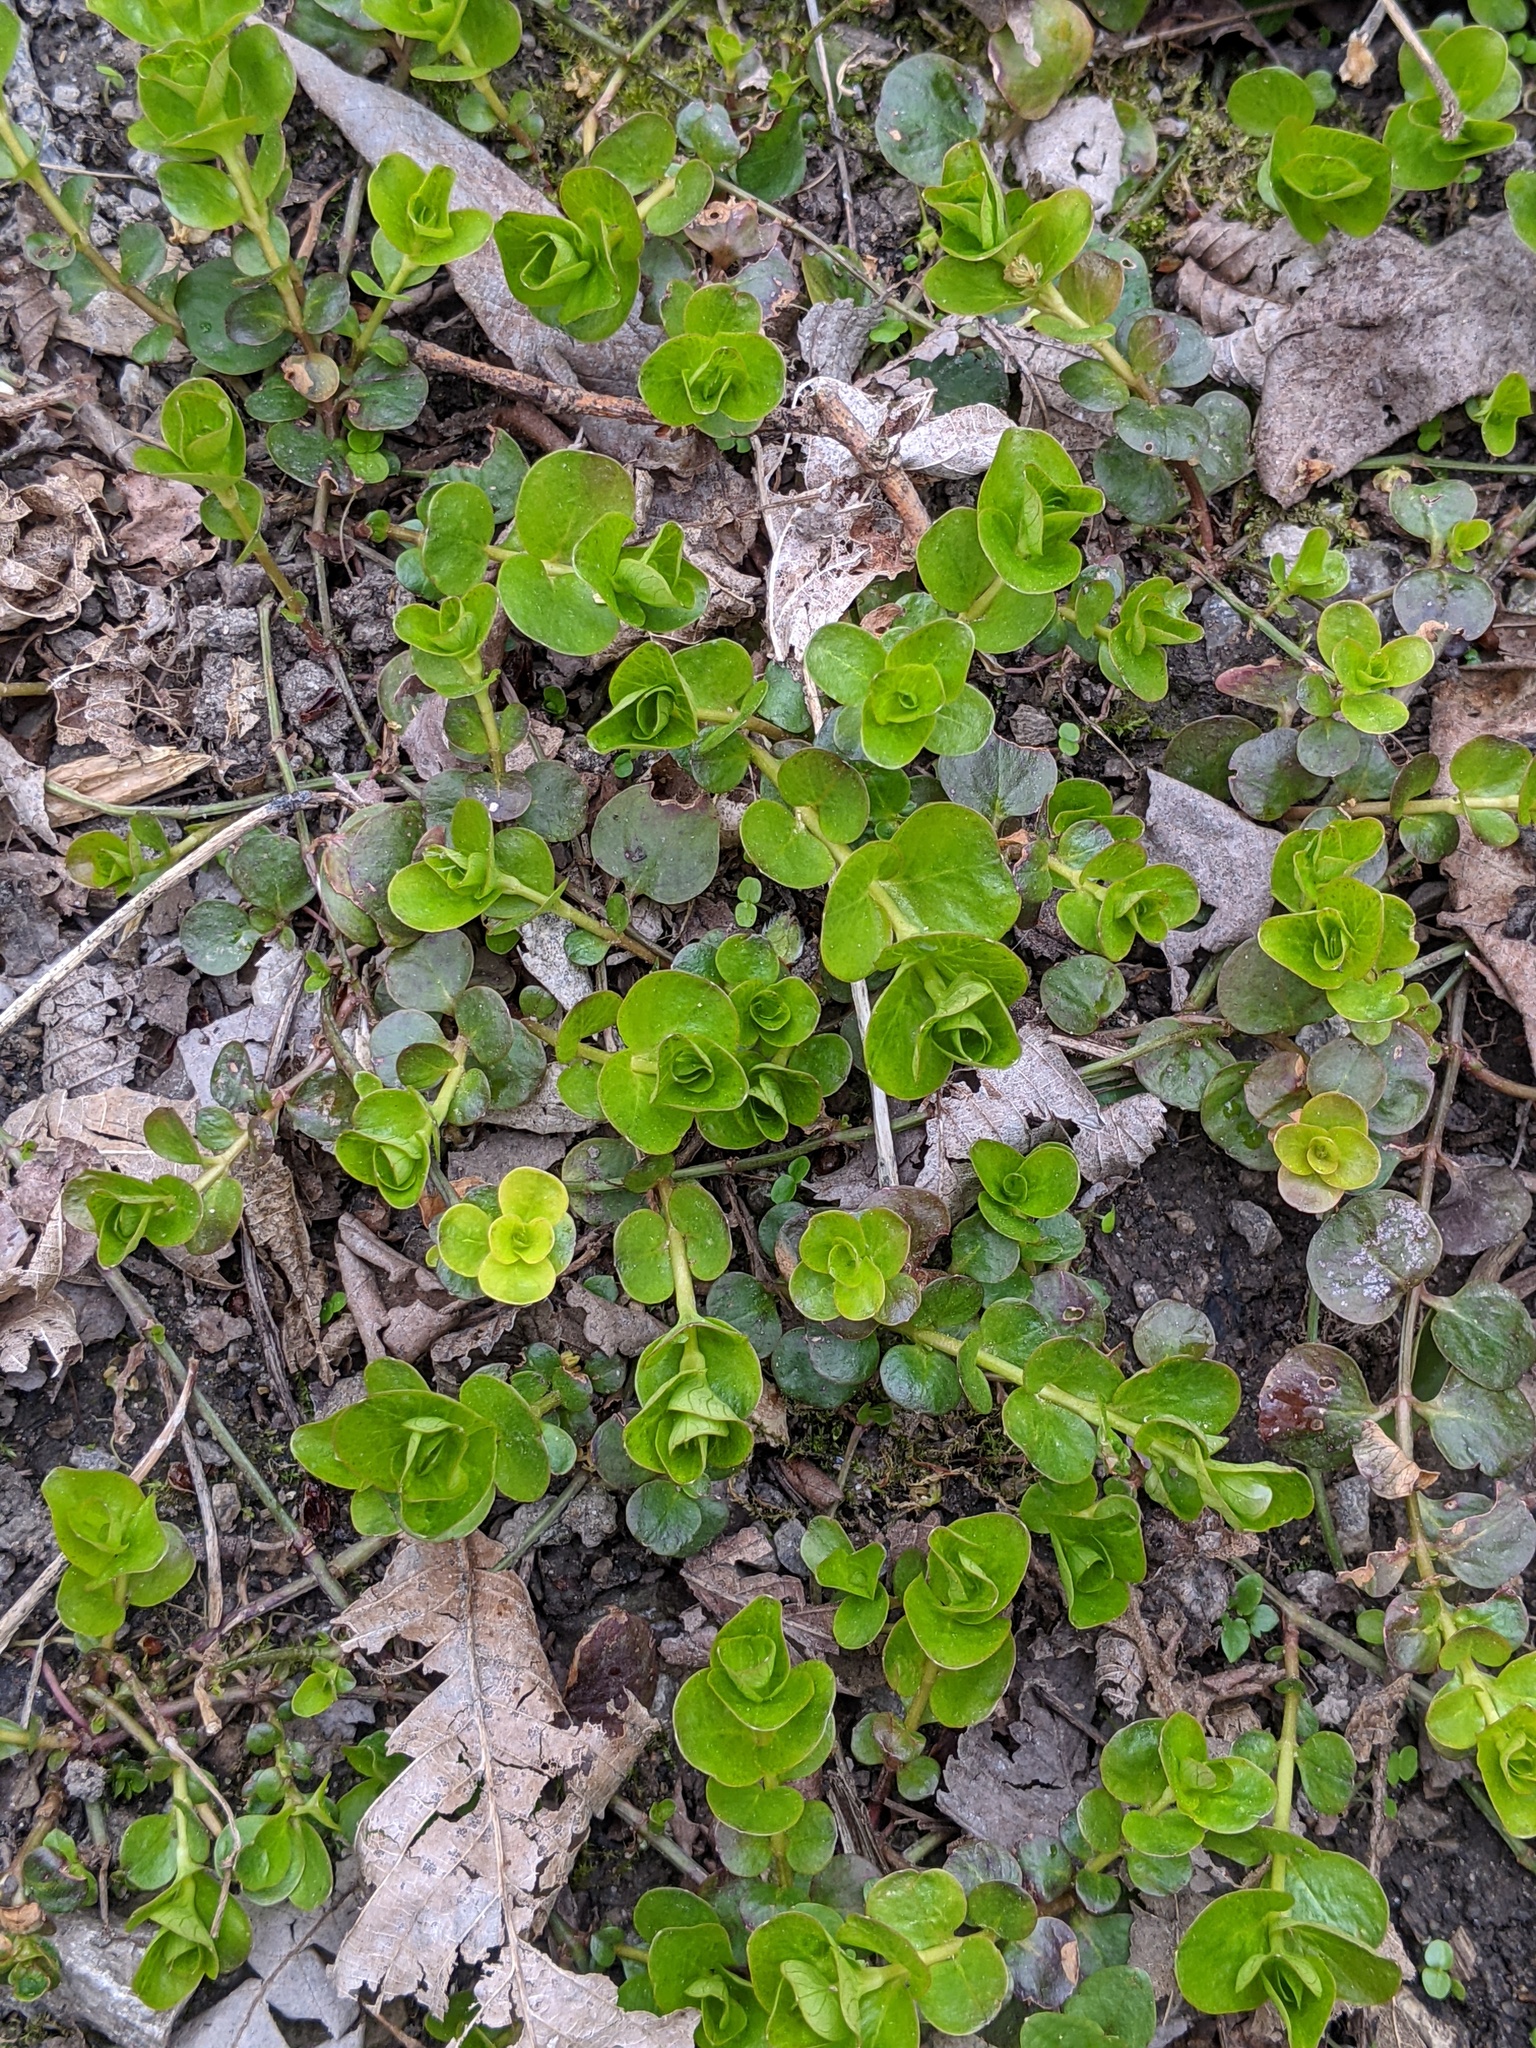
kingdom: Plantae
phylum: Tracheophyta
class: Magnoliopsida
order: Ericales
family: Primulaceae
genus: Lysimachia
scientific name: Lysimachia nummularia
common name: Moneywort
